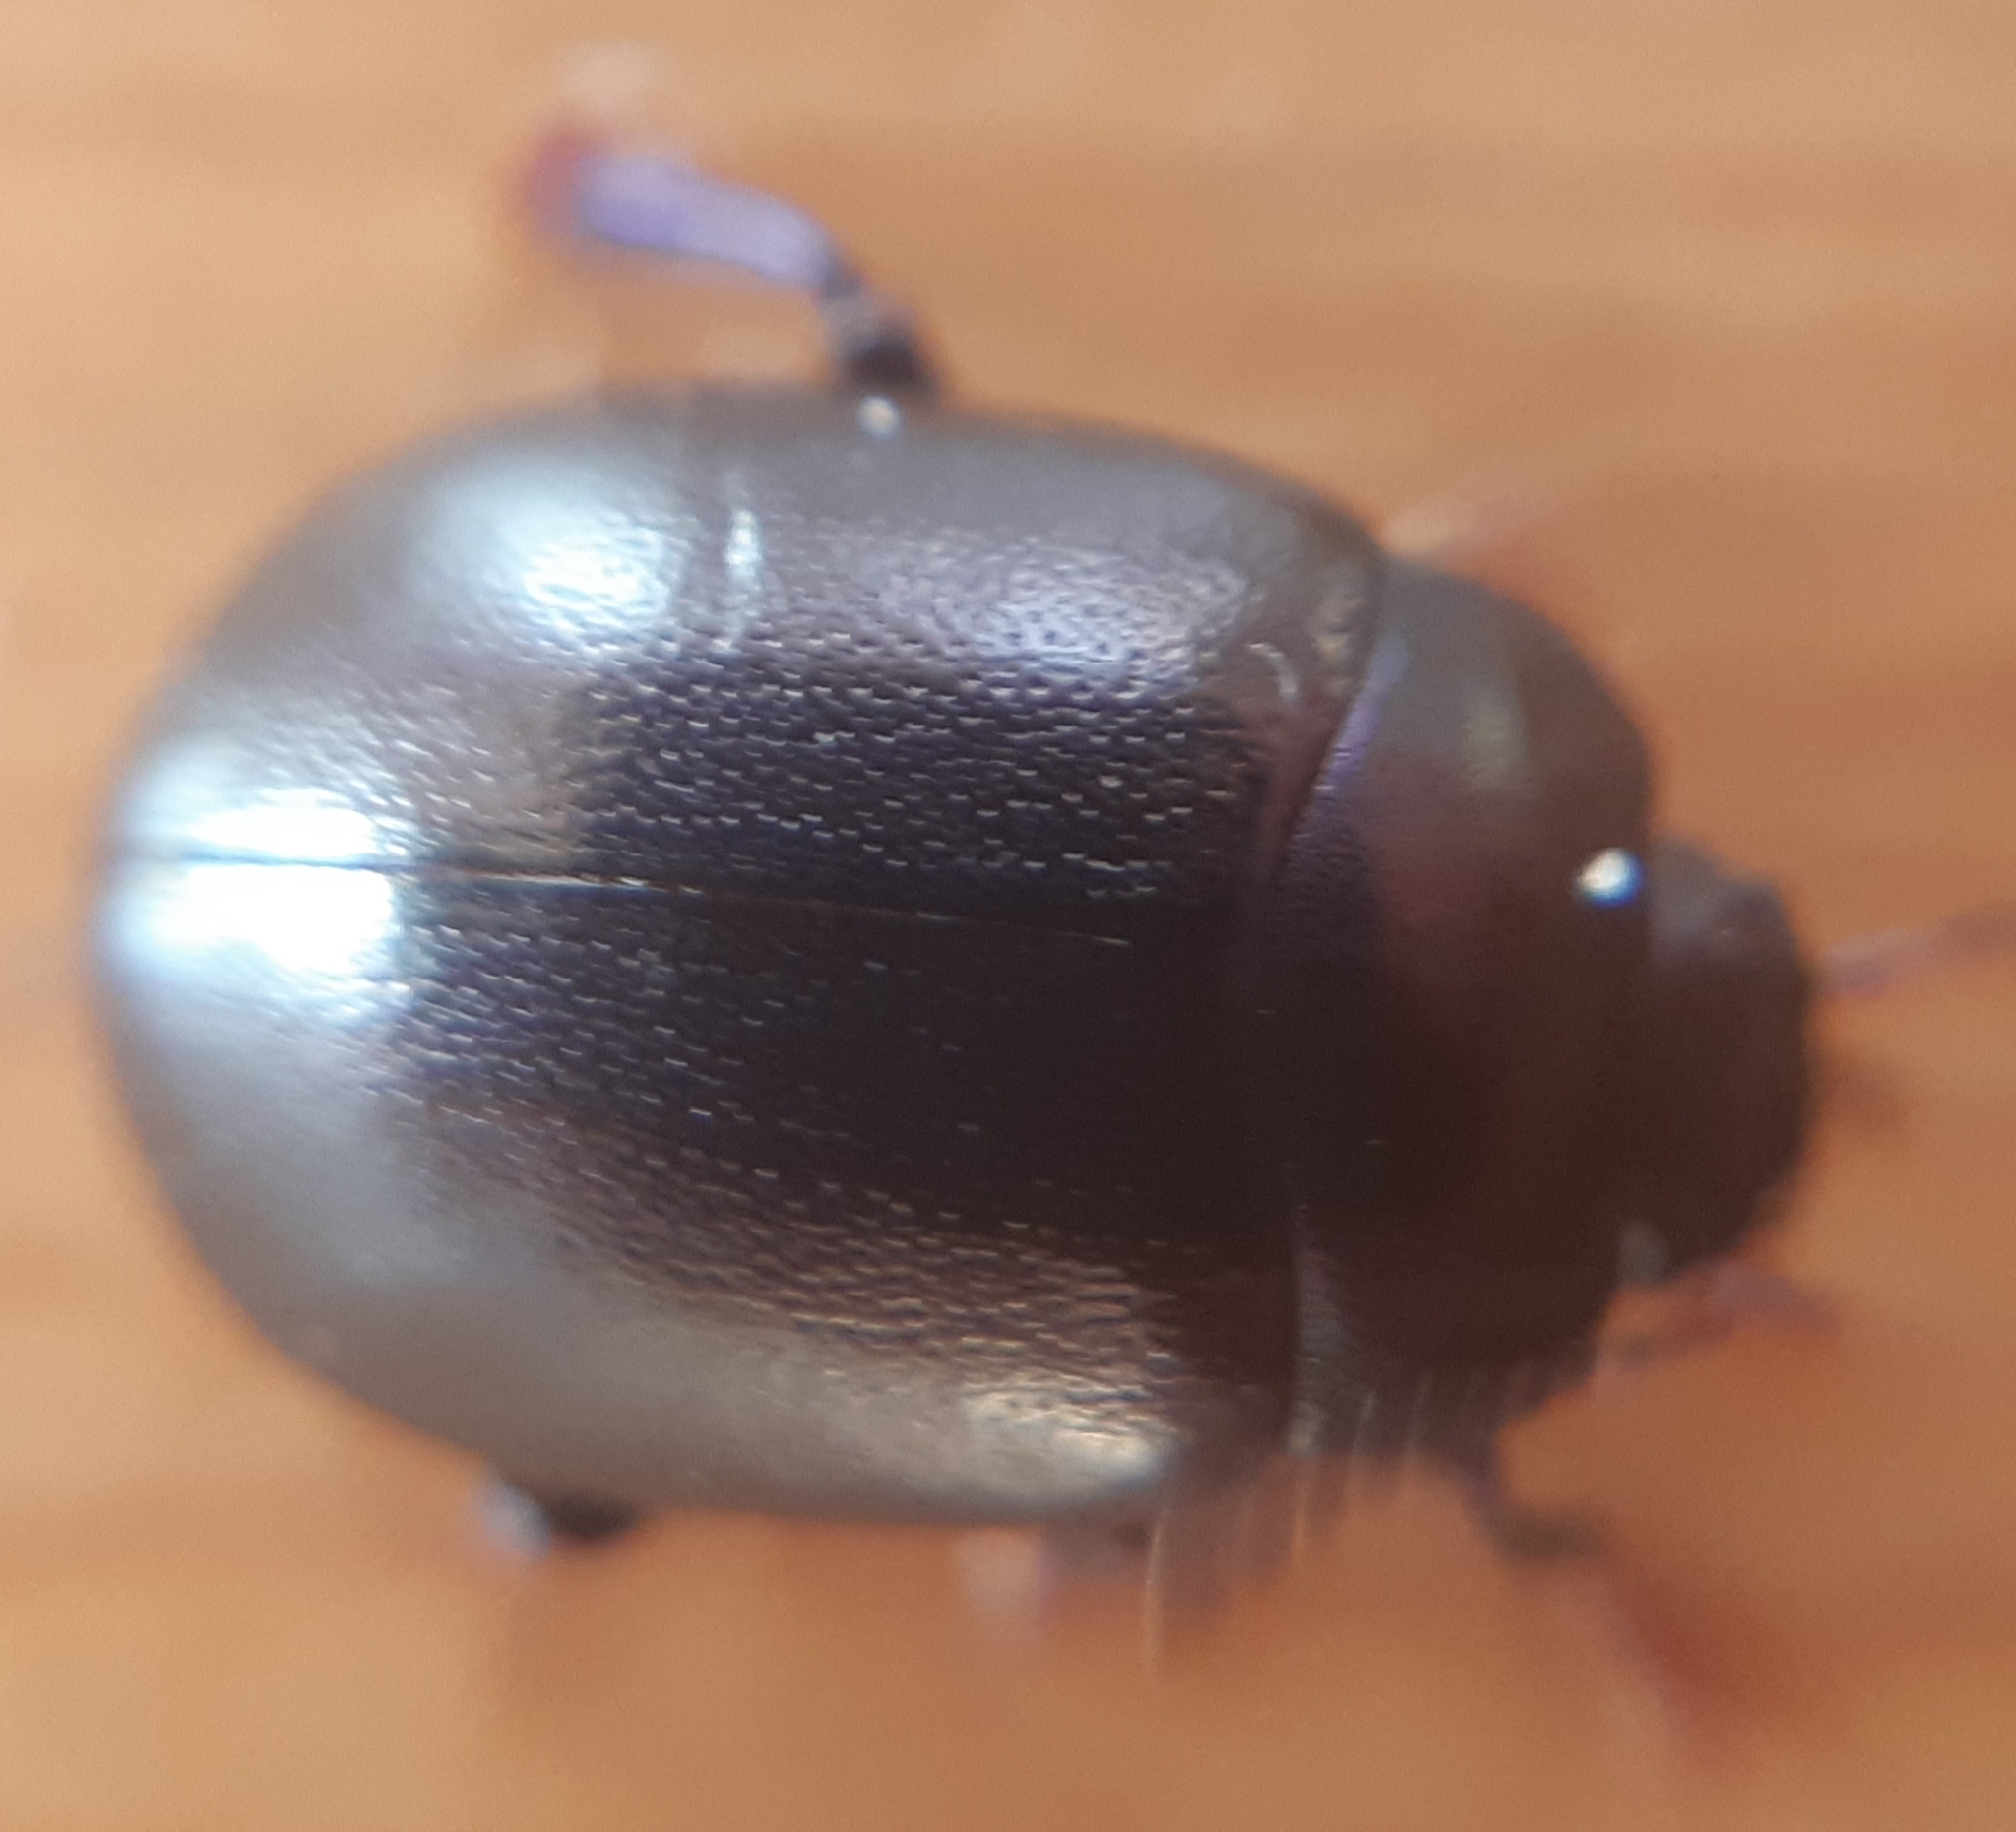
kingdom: Animalia
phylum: Arthropoda
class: Insecta
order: Coleoptera
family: Chrysomelidae
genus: Chrysolina
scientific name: Chrysolina sturmi
